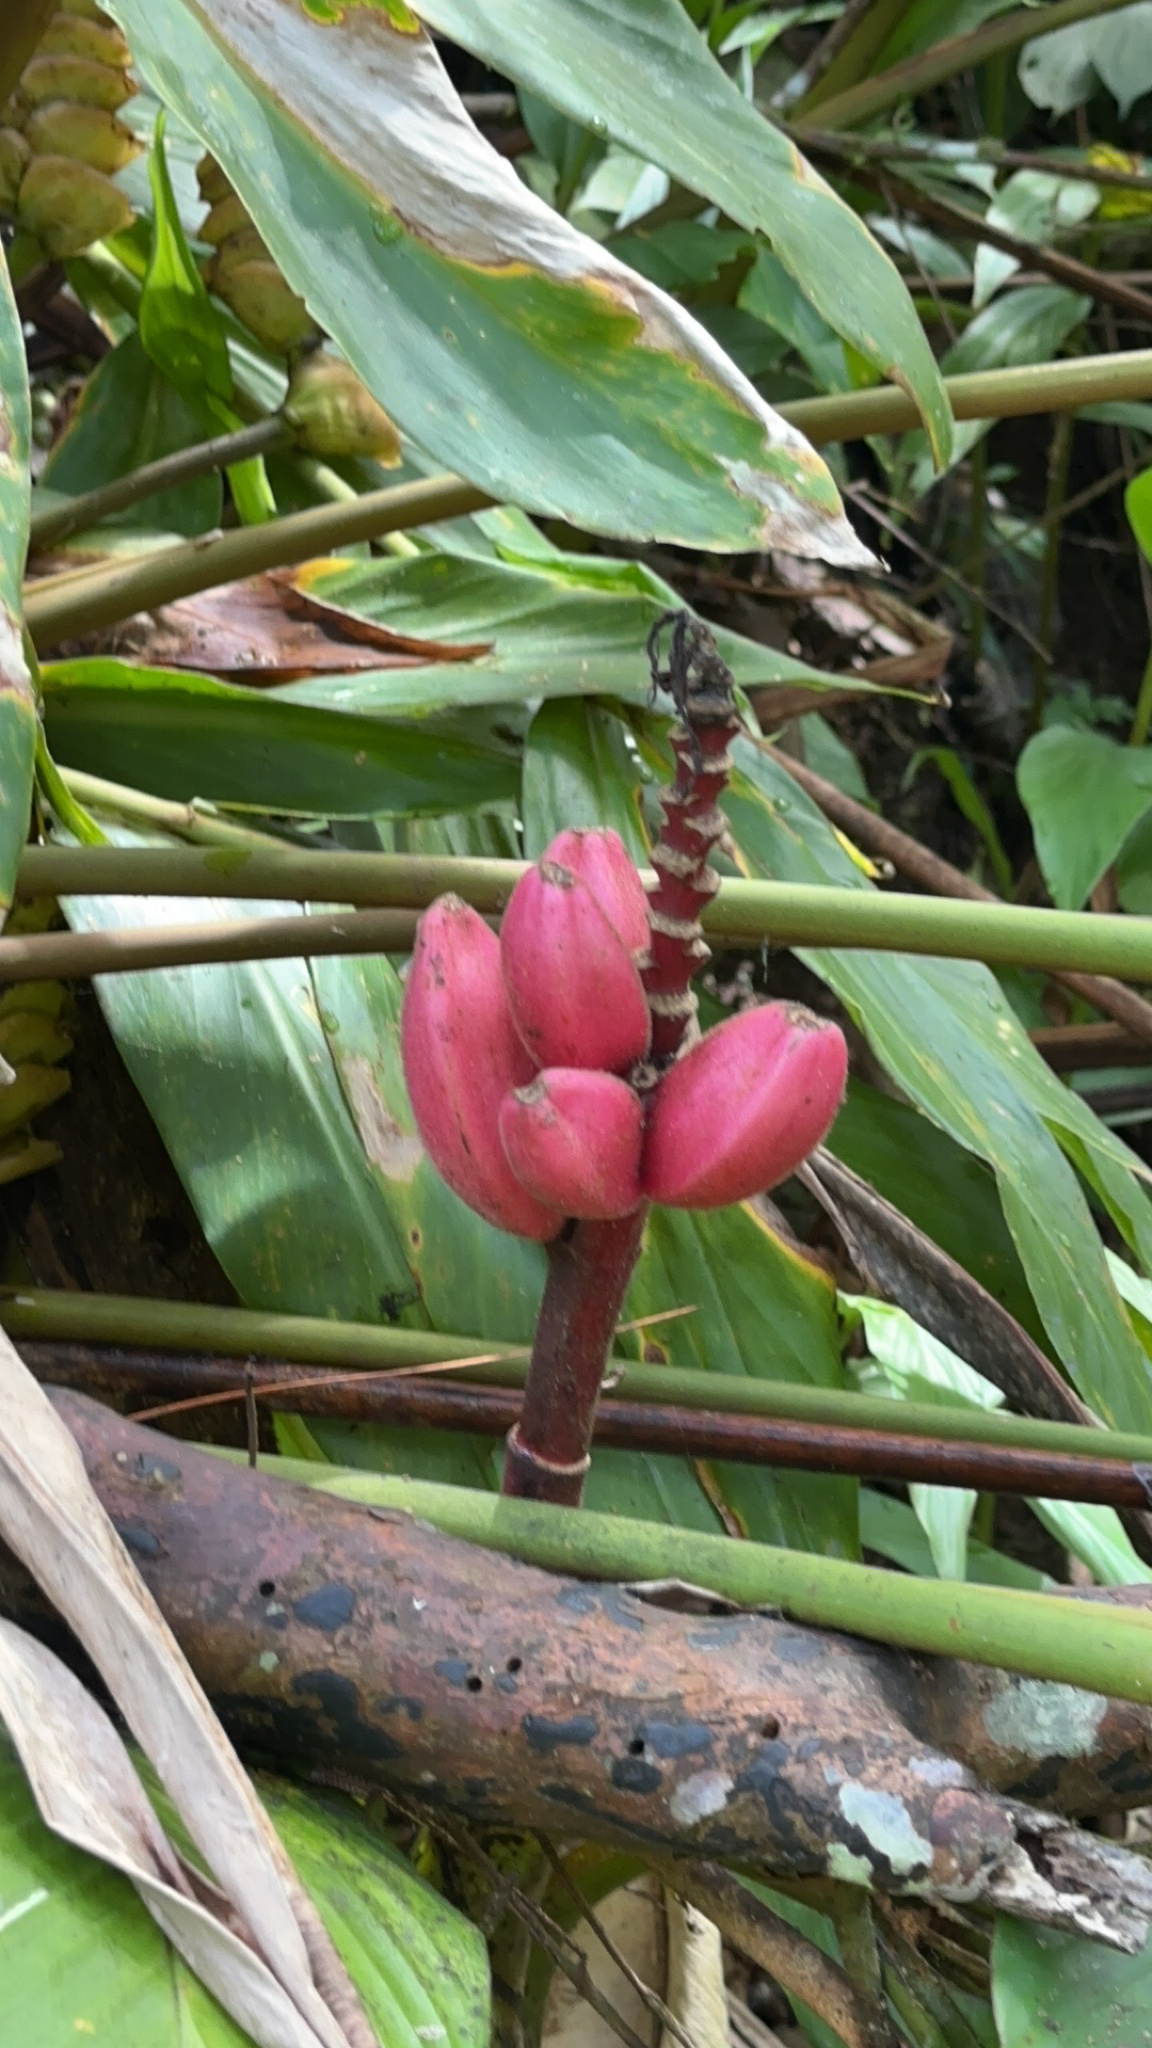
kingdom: Plantae
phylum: Tracheophyta
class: Liliopsida
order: Zingiberales
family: Musaceae
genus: Musa
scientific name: Musa velutina
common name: Pink velvet banana
